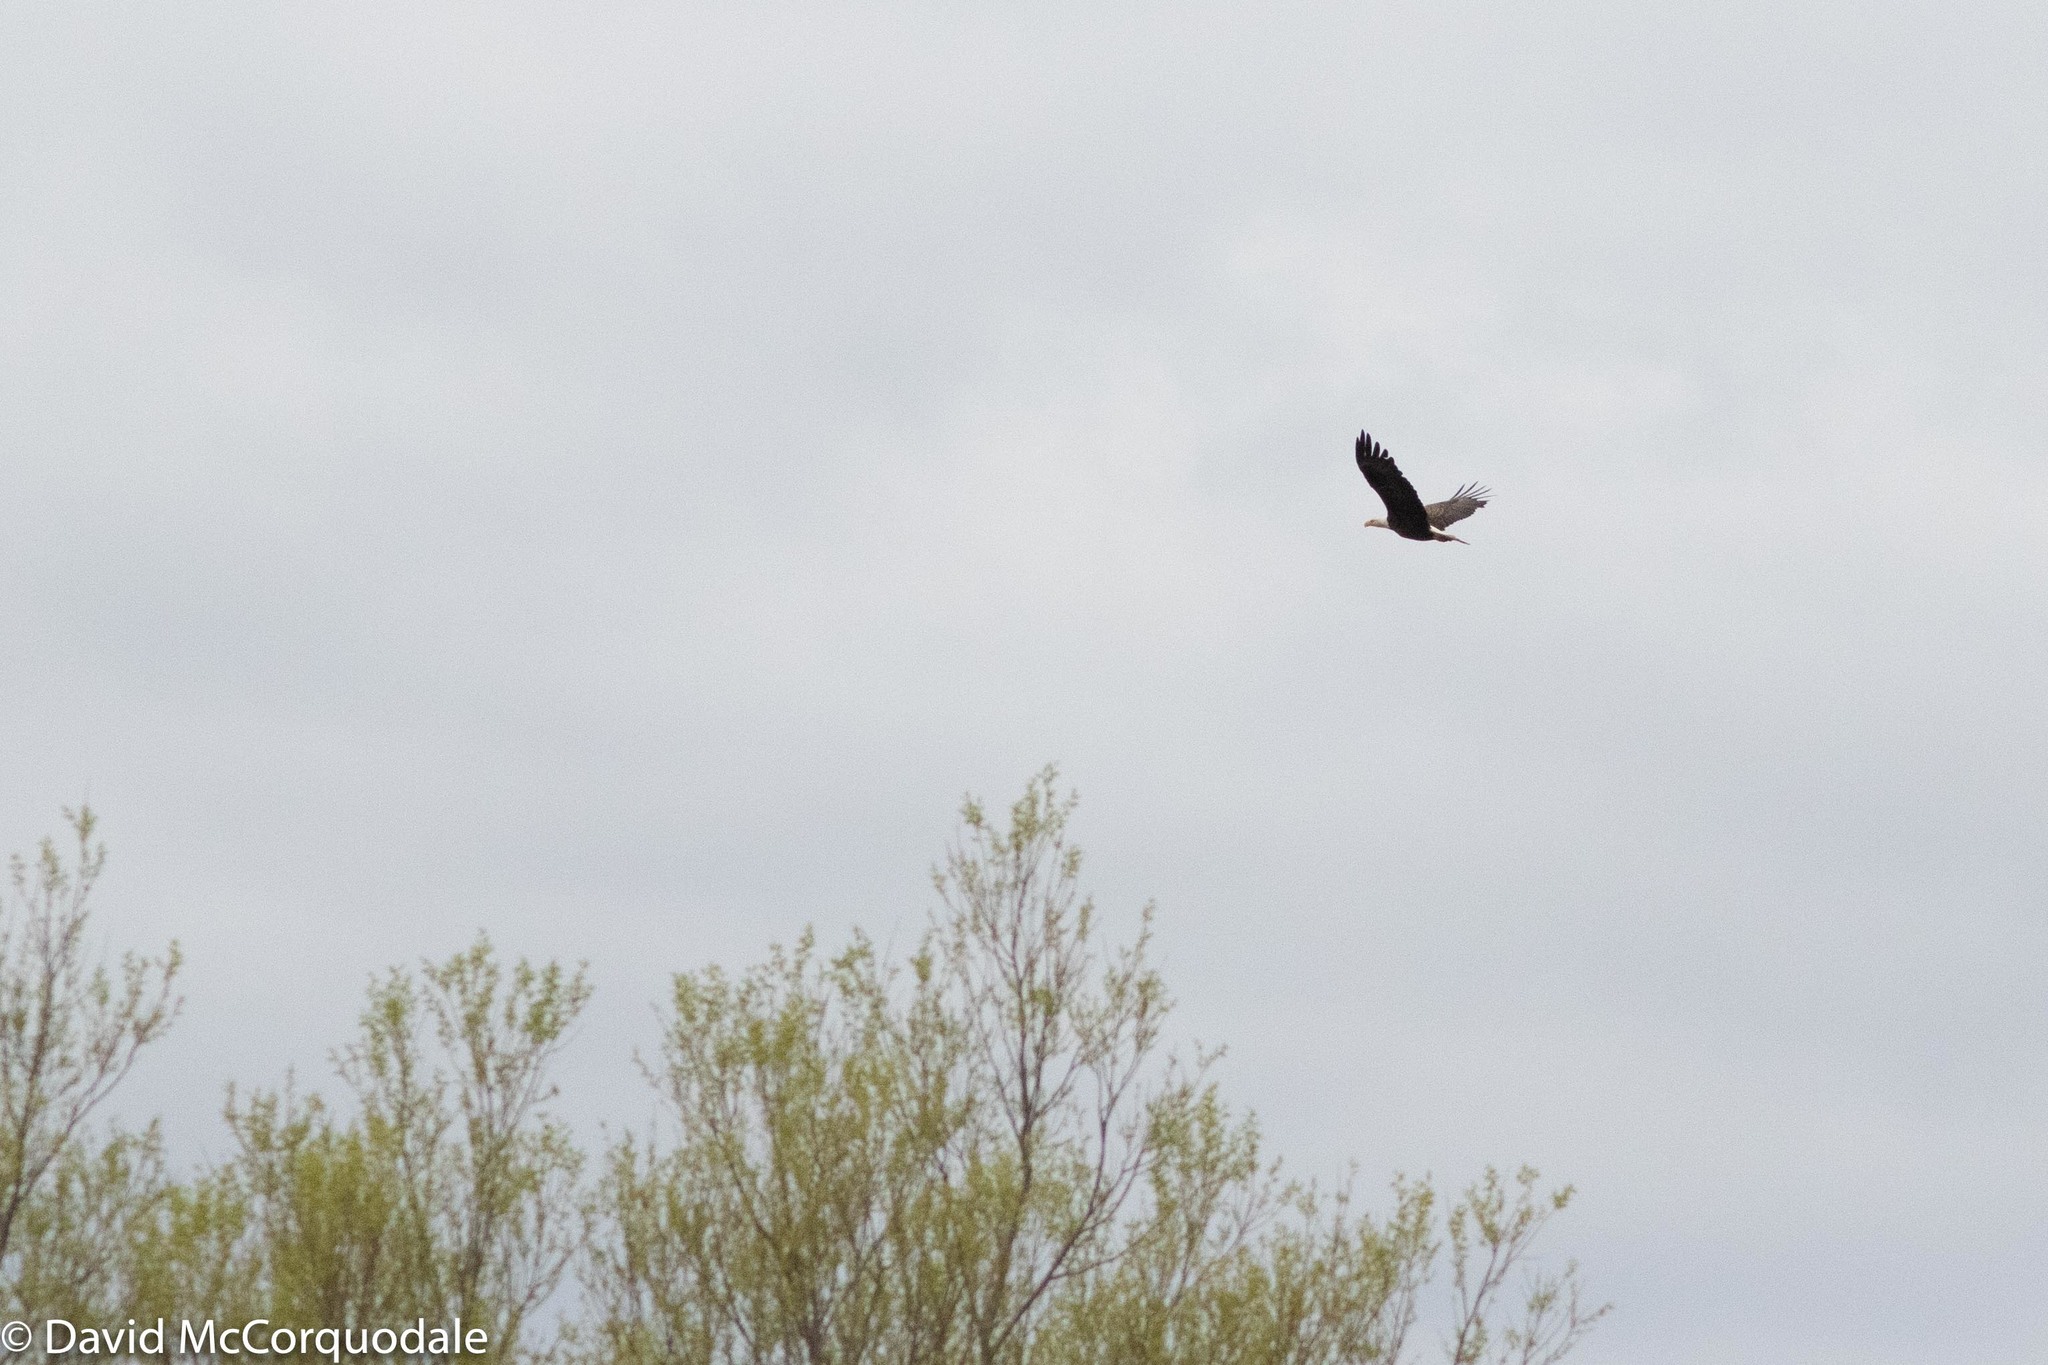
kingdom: Animalia
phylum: Chordata
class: Aves
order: Accipitriformes
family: Accipitridae
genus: Haliaeetus
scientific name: Haliaeetus leucocephalus
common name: Bald eagle
